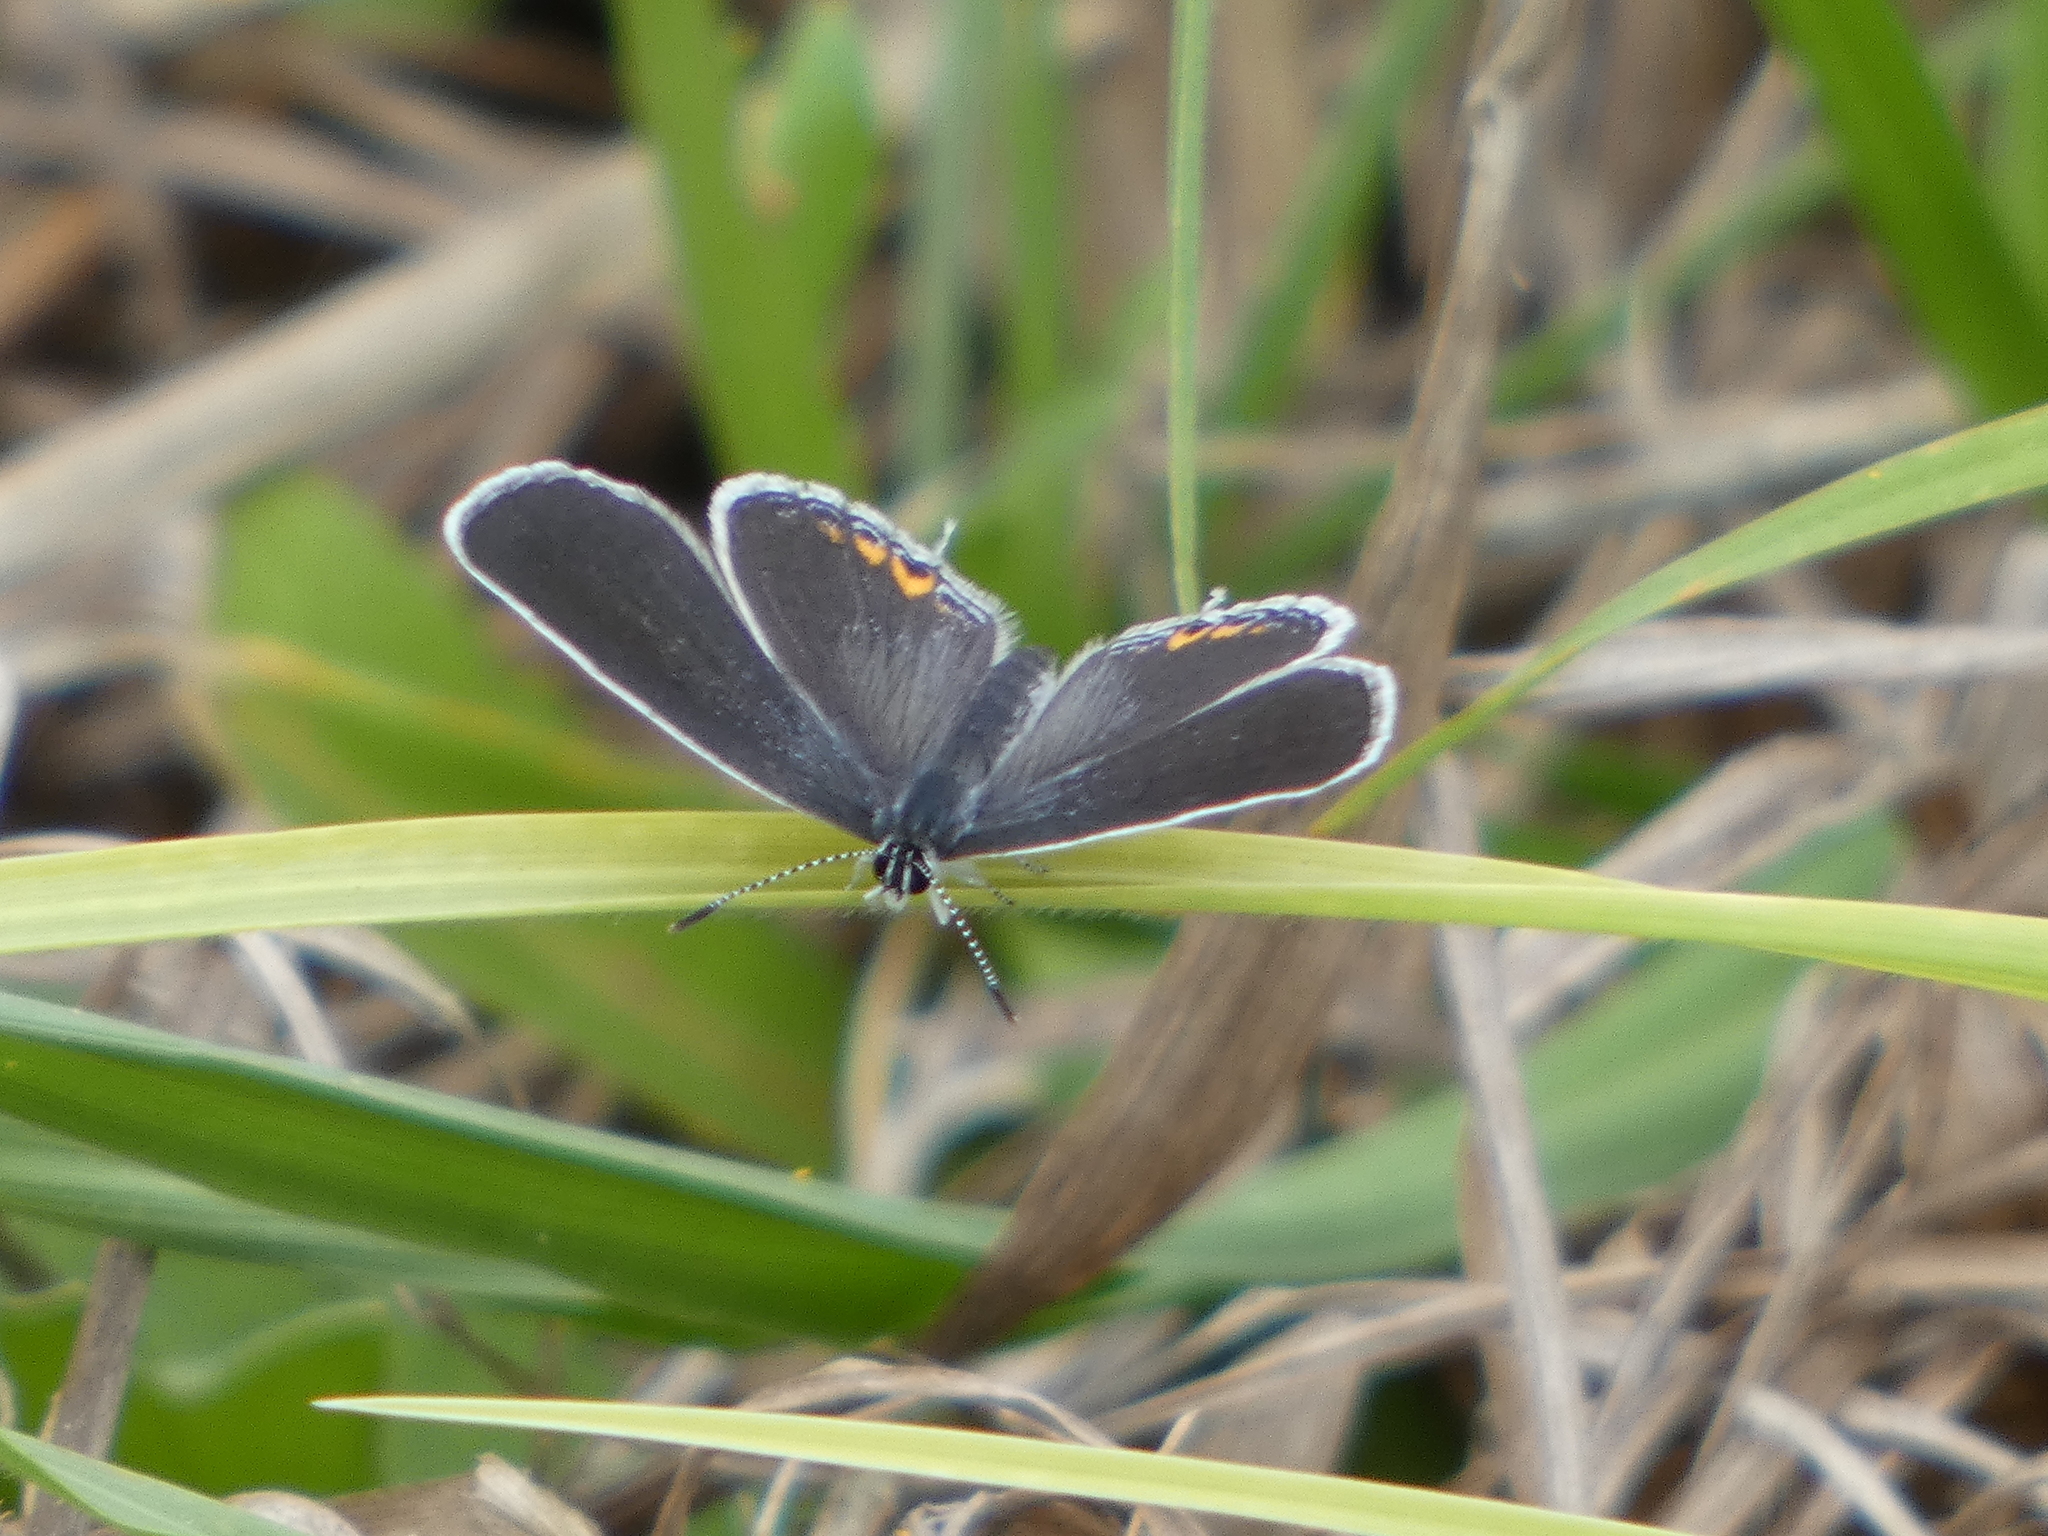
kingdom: Animalia
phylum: Arthropoda
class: Insecta
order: Lepidoptera
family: Lycaenidae
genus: Elkalyce
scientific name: Elkalyce comyntas
